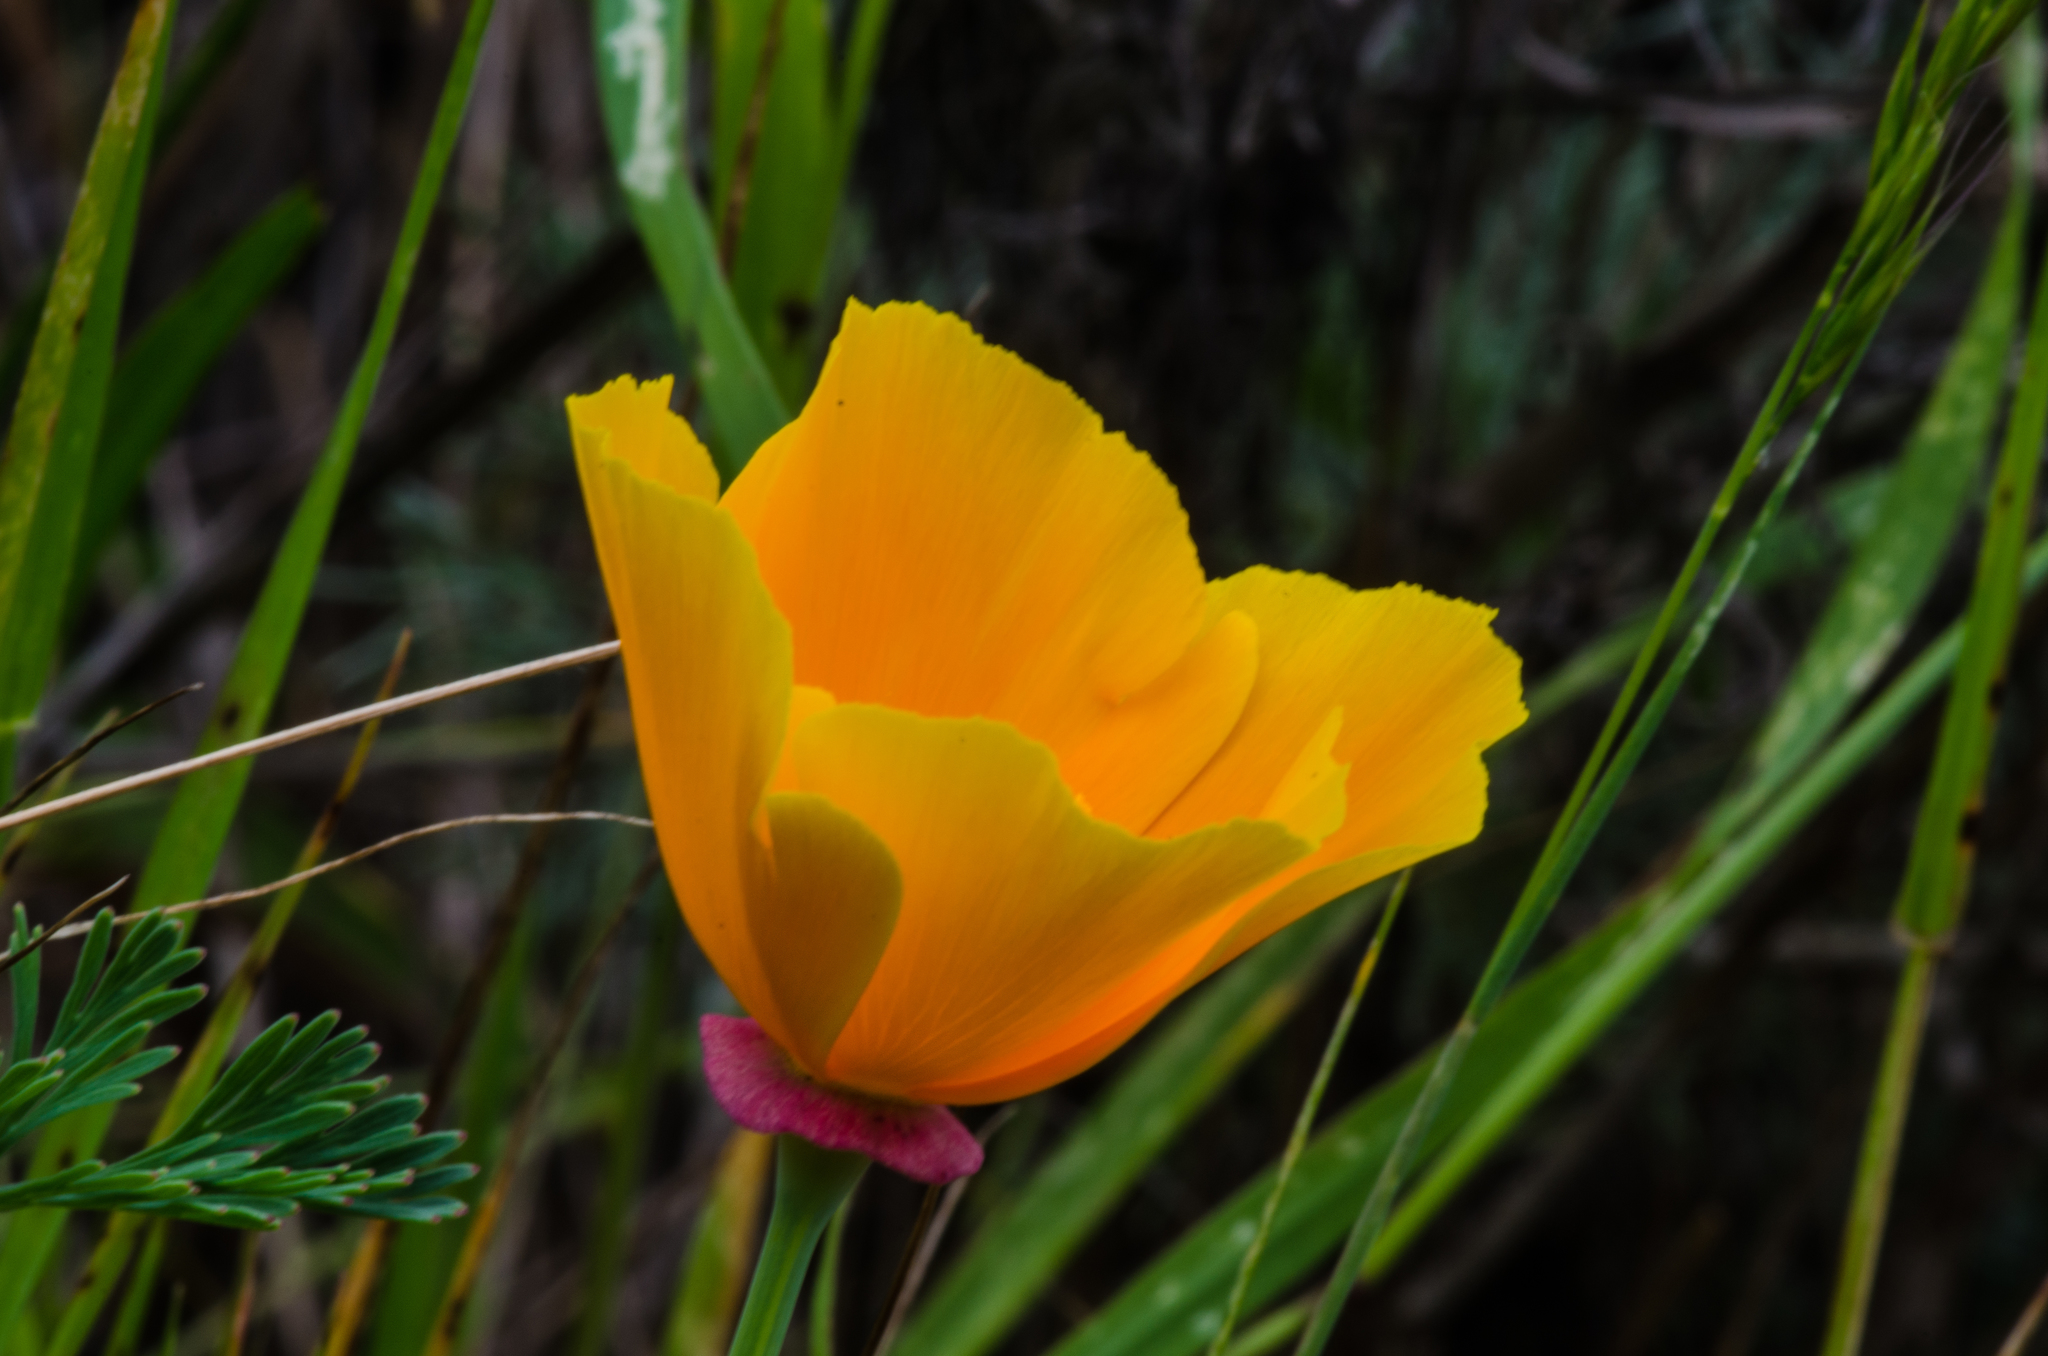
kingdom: Plantae
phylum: Tracheophyta
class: Magnoliopsida
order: Ranunculales
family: Papaveraceae
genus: Eschscholzia
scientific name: Eschscholzia californica
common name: California poppy
